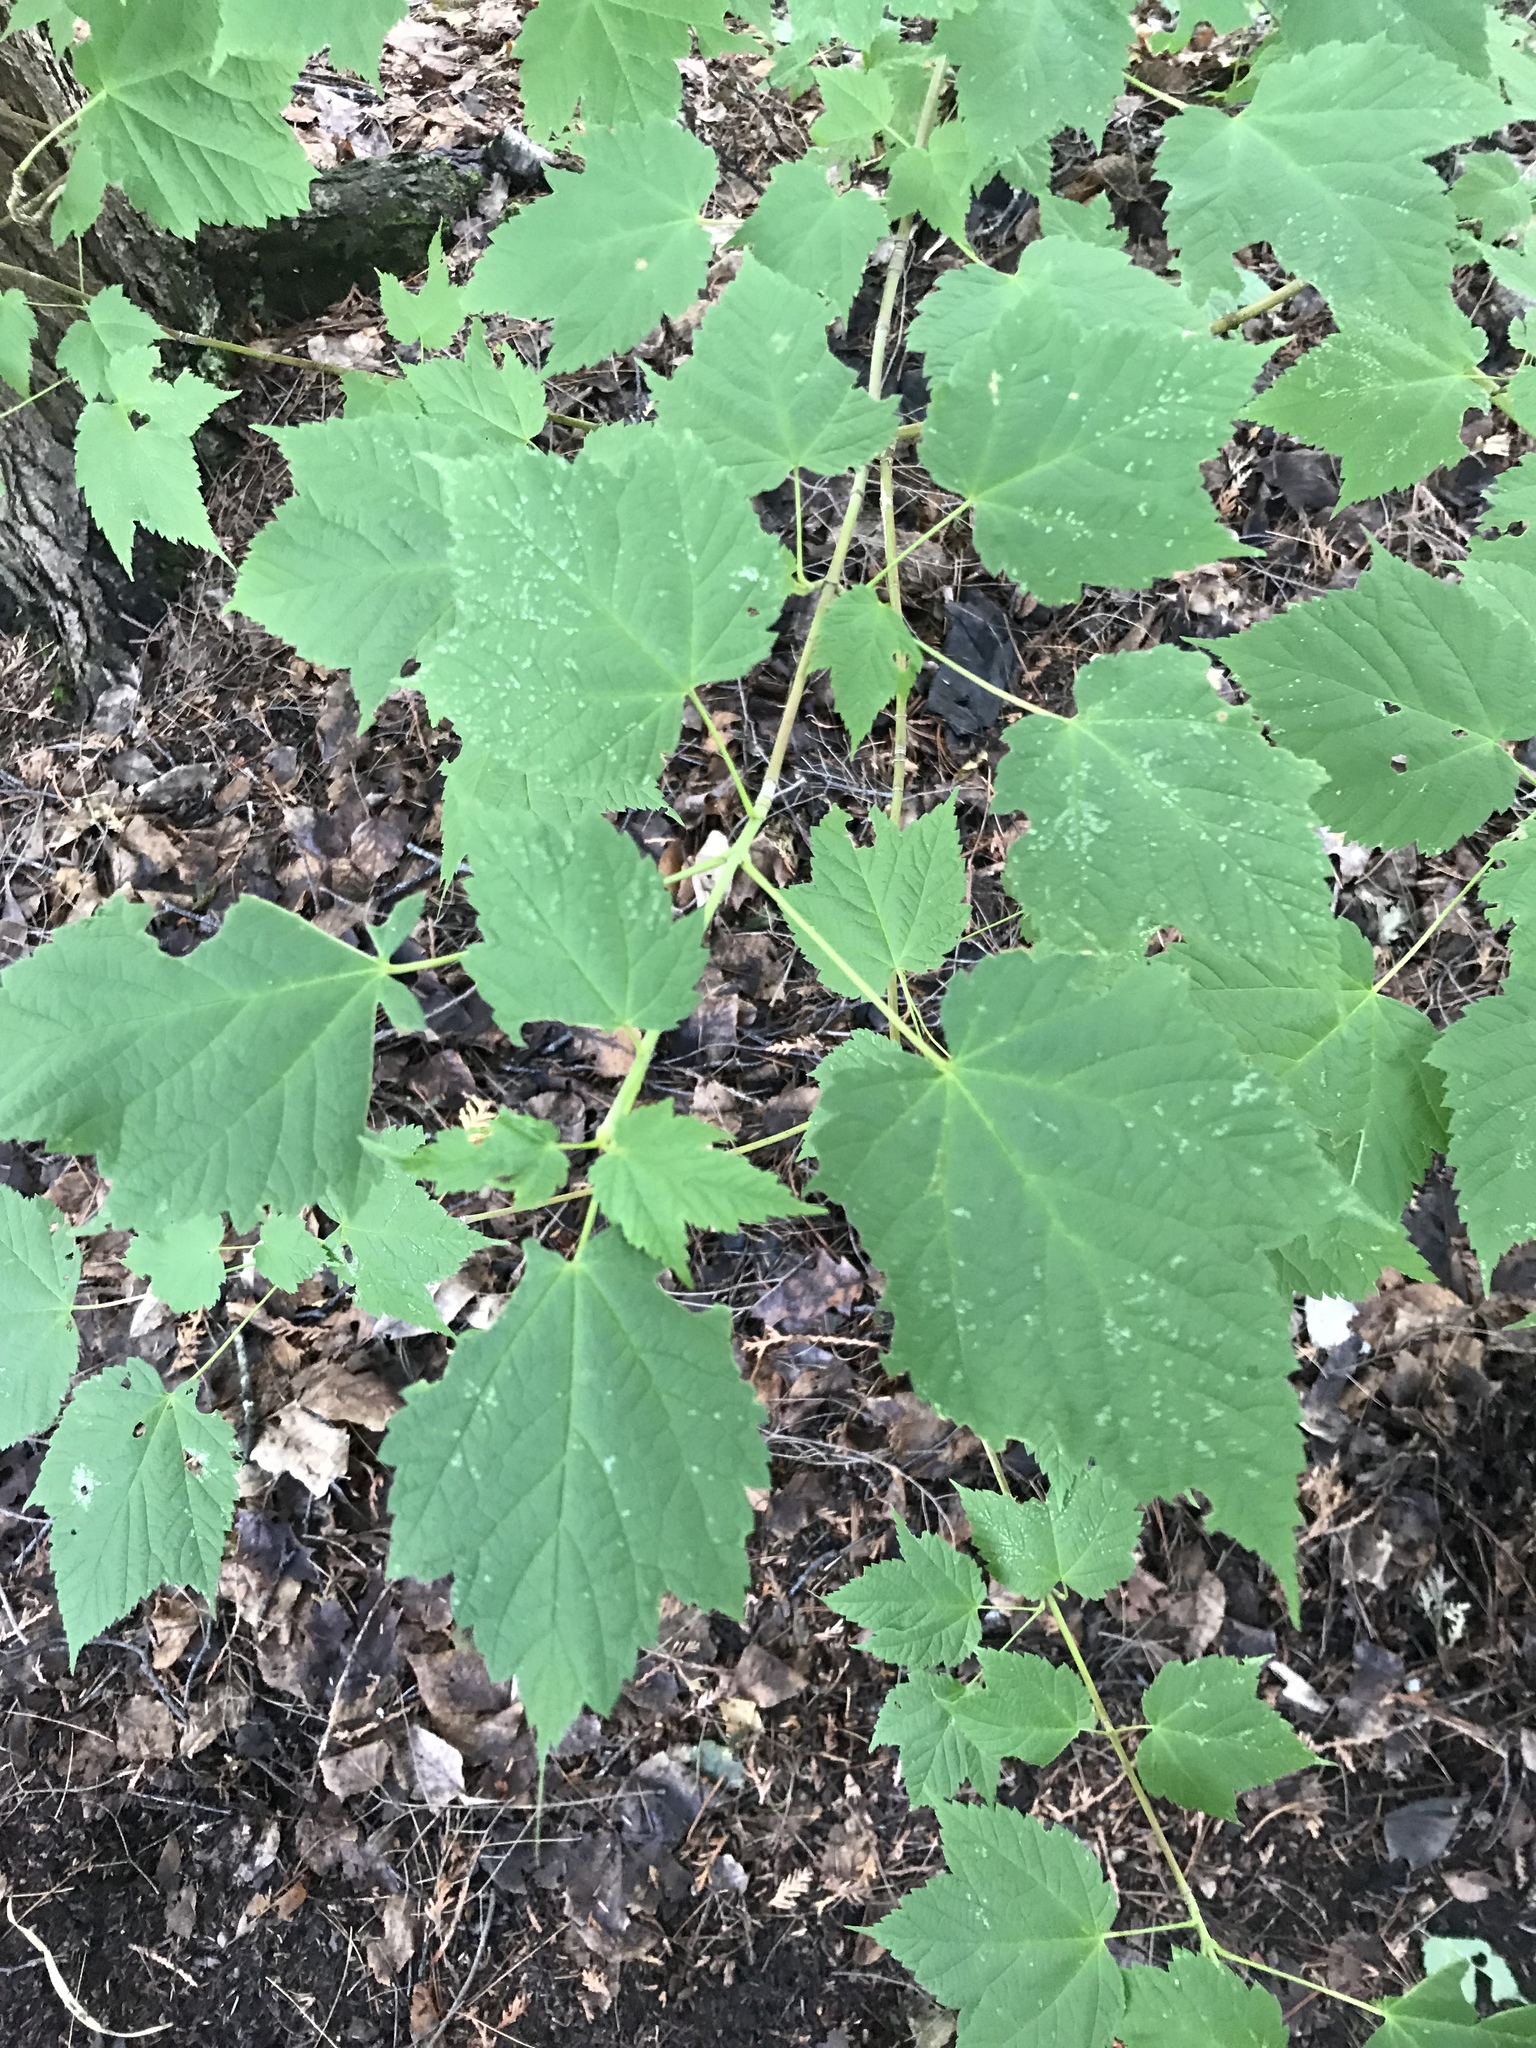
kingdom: Plantae
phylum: Tracheophyta
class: Magnoliopsida
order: Sapindales
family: Sapindaceae
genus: Acer
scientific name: Acer spicatum
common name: Mountain maple
